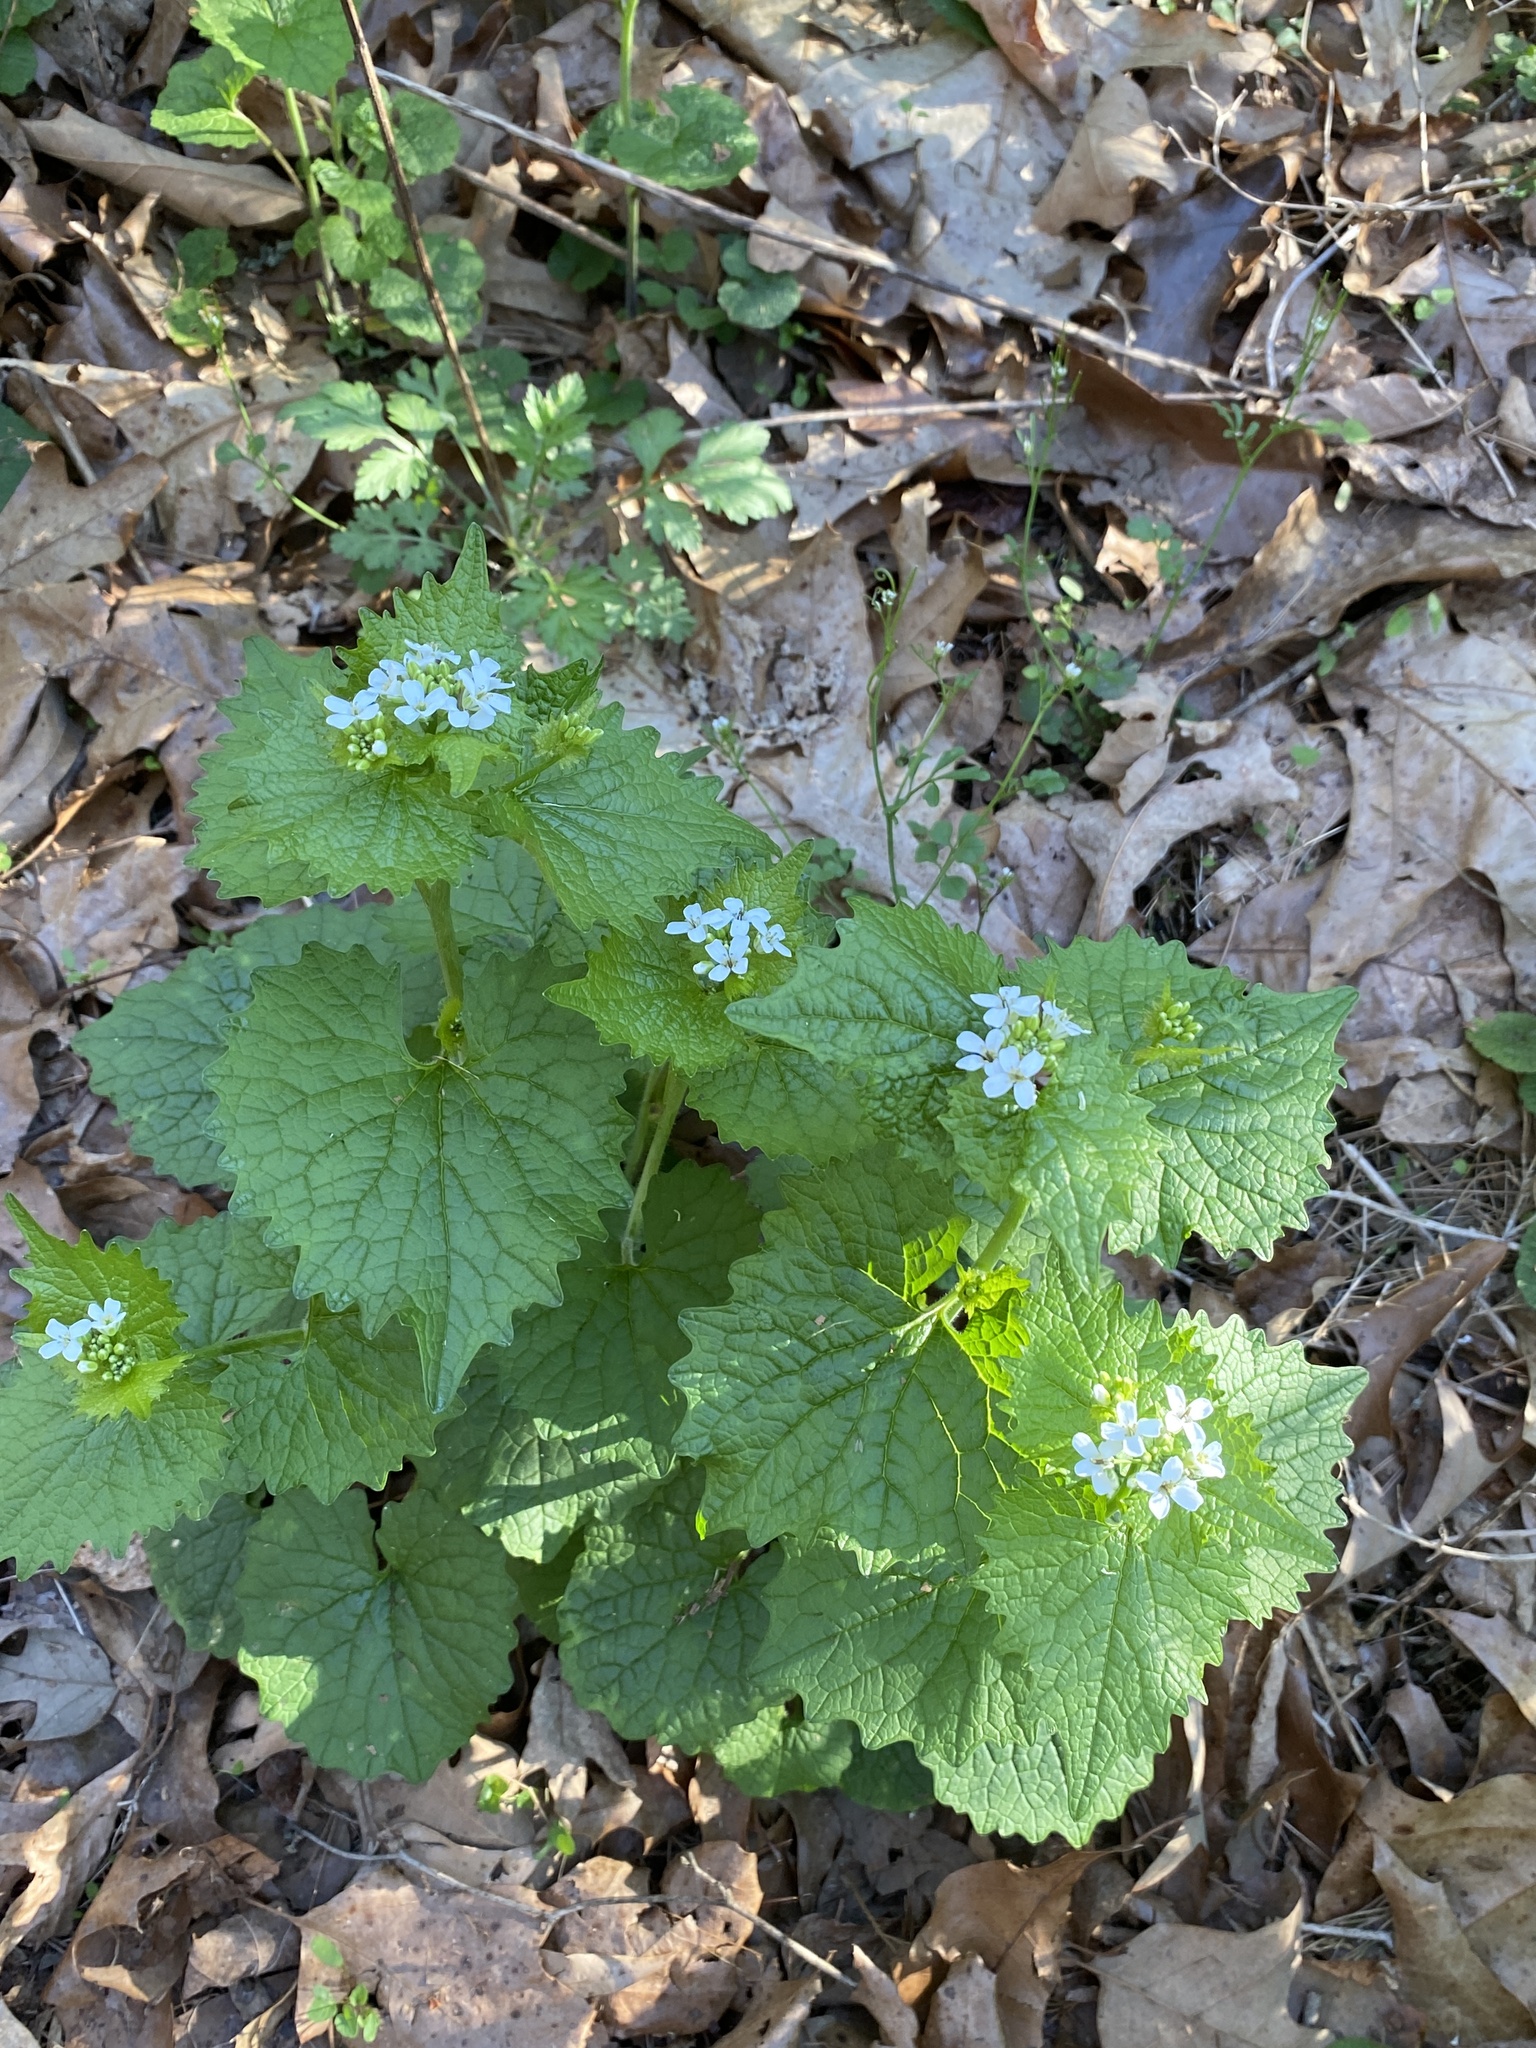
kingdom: Plantae
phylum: Tracheophyta
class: Magnoliopsida
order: Brassicales
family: Brassicaceae
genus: Alliaria
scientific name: Alliaria petiolata
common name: Garlic mustard
